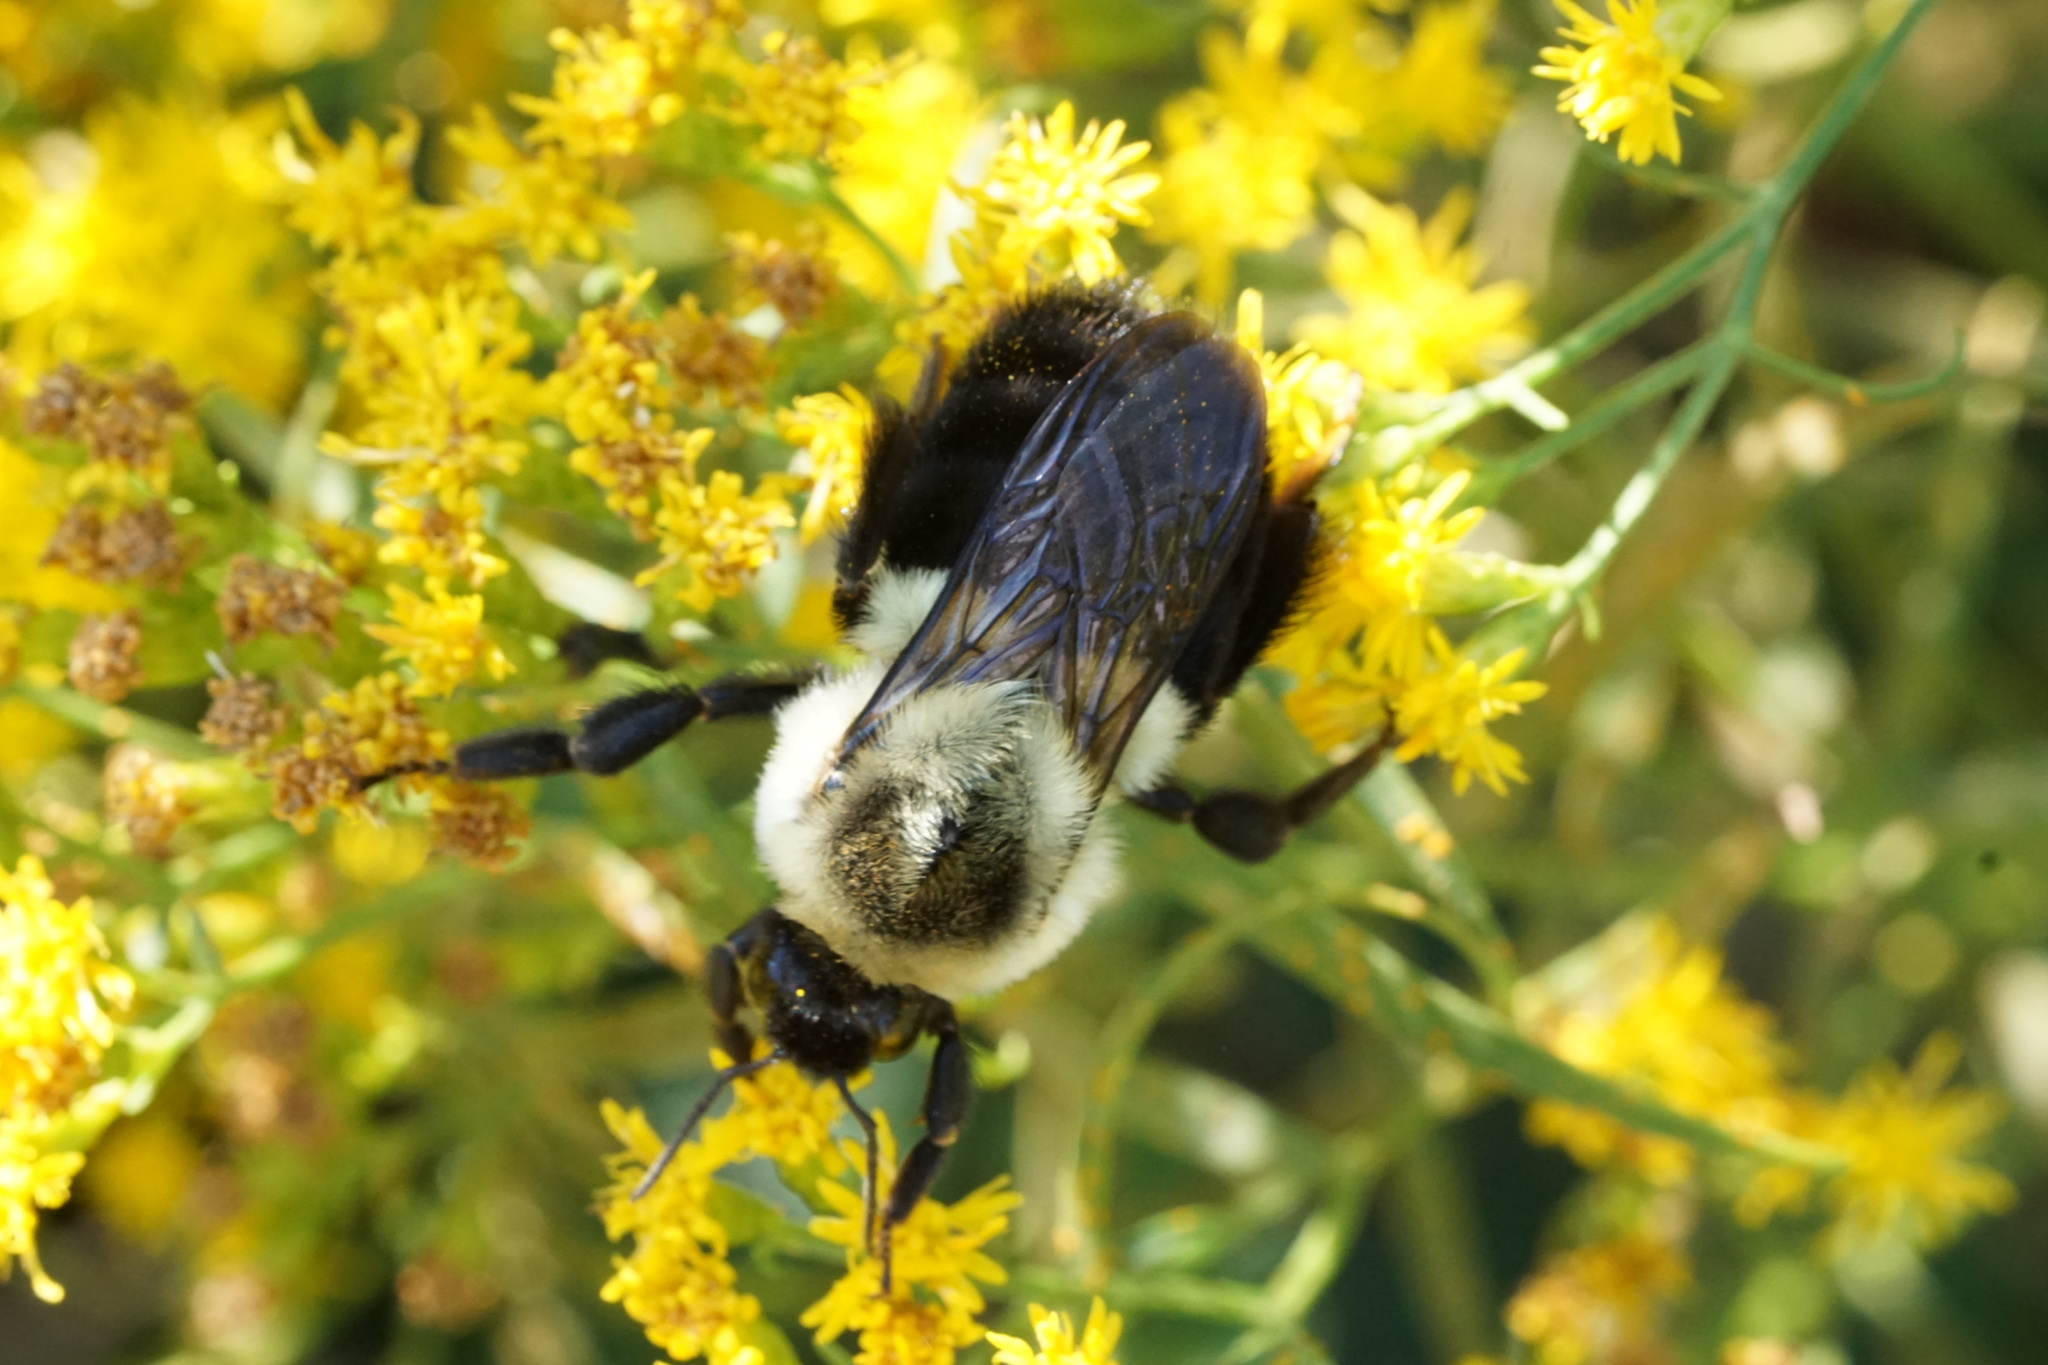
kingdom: Animalia
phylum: Arthropoda
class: Insecta
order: Hymenoptera
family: Apidae
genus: Bombus
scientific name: Bombus impatiens
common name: Common eastern bumble bee
